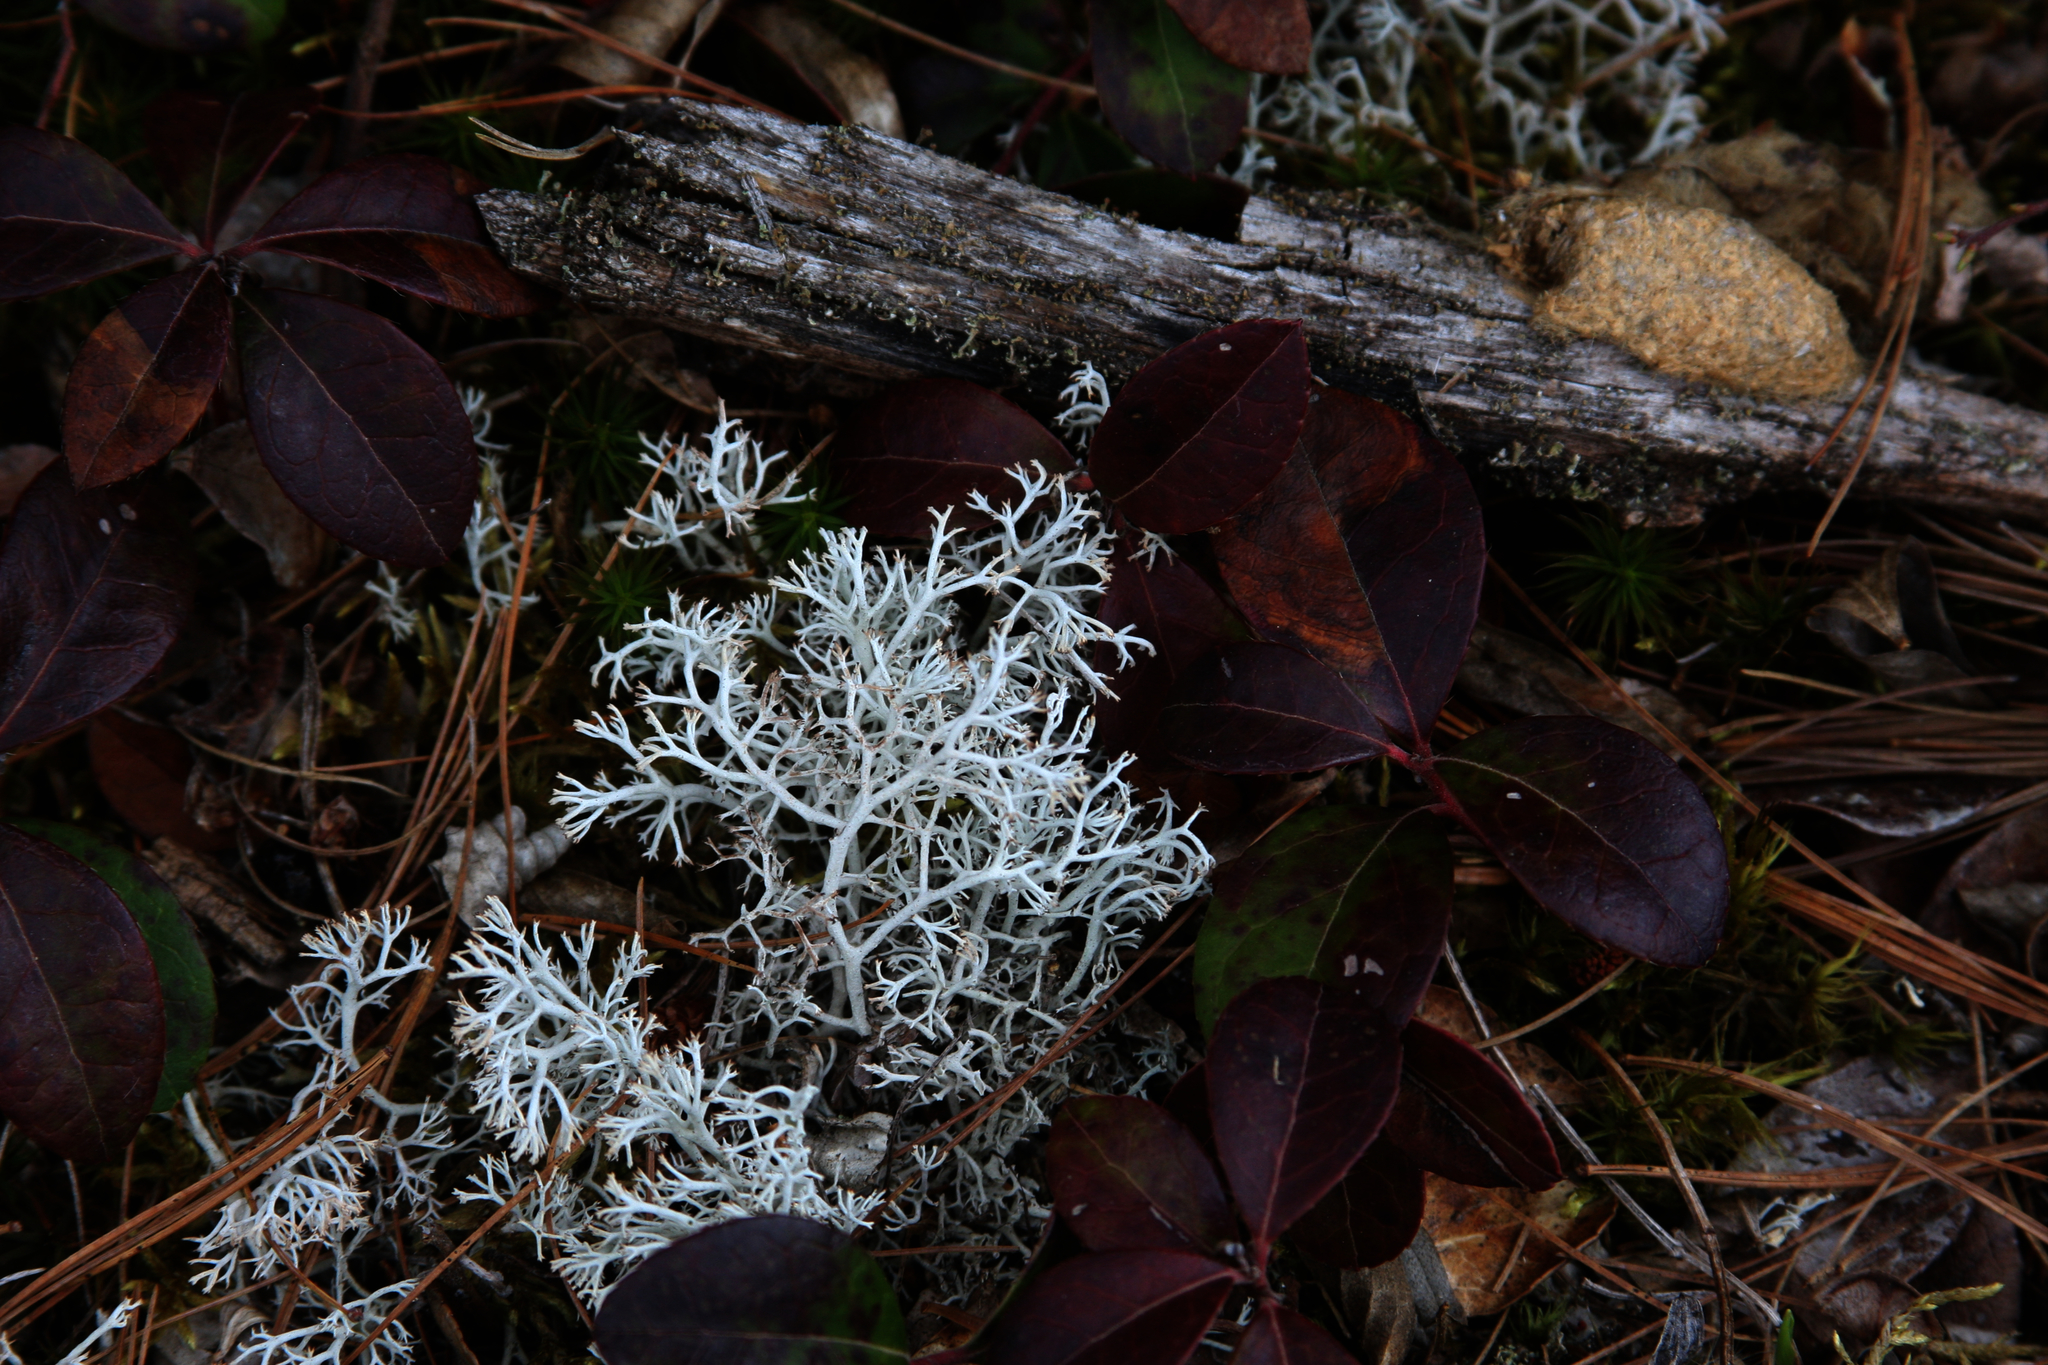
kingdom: Plantae
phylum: Tracheophyta
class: Magnoliopsida
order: Ericales
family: Ericaceae
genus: Gaultheria
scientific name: Gaultheria procumbens
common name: Checkerberry
